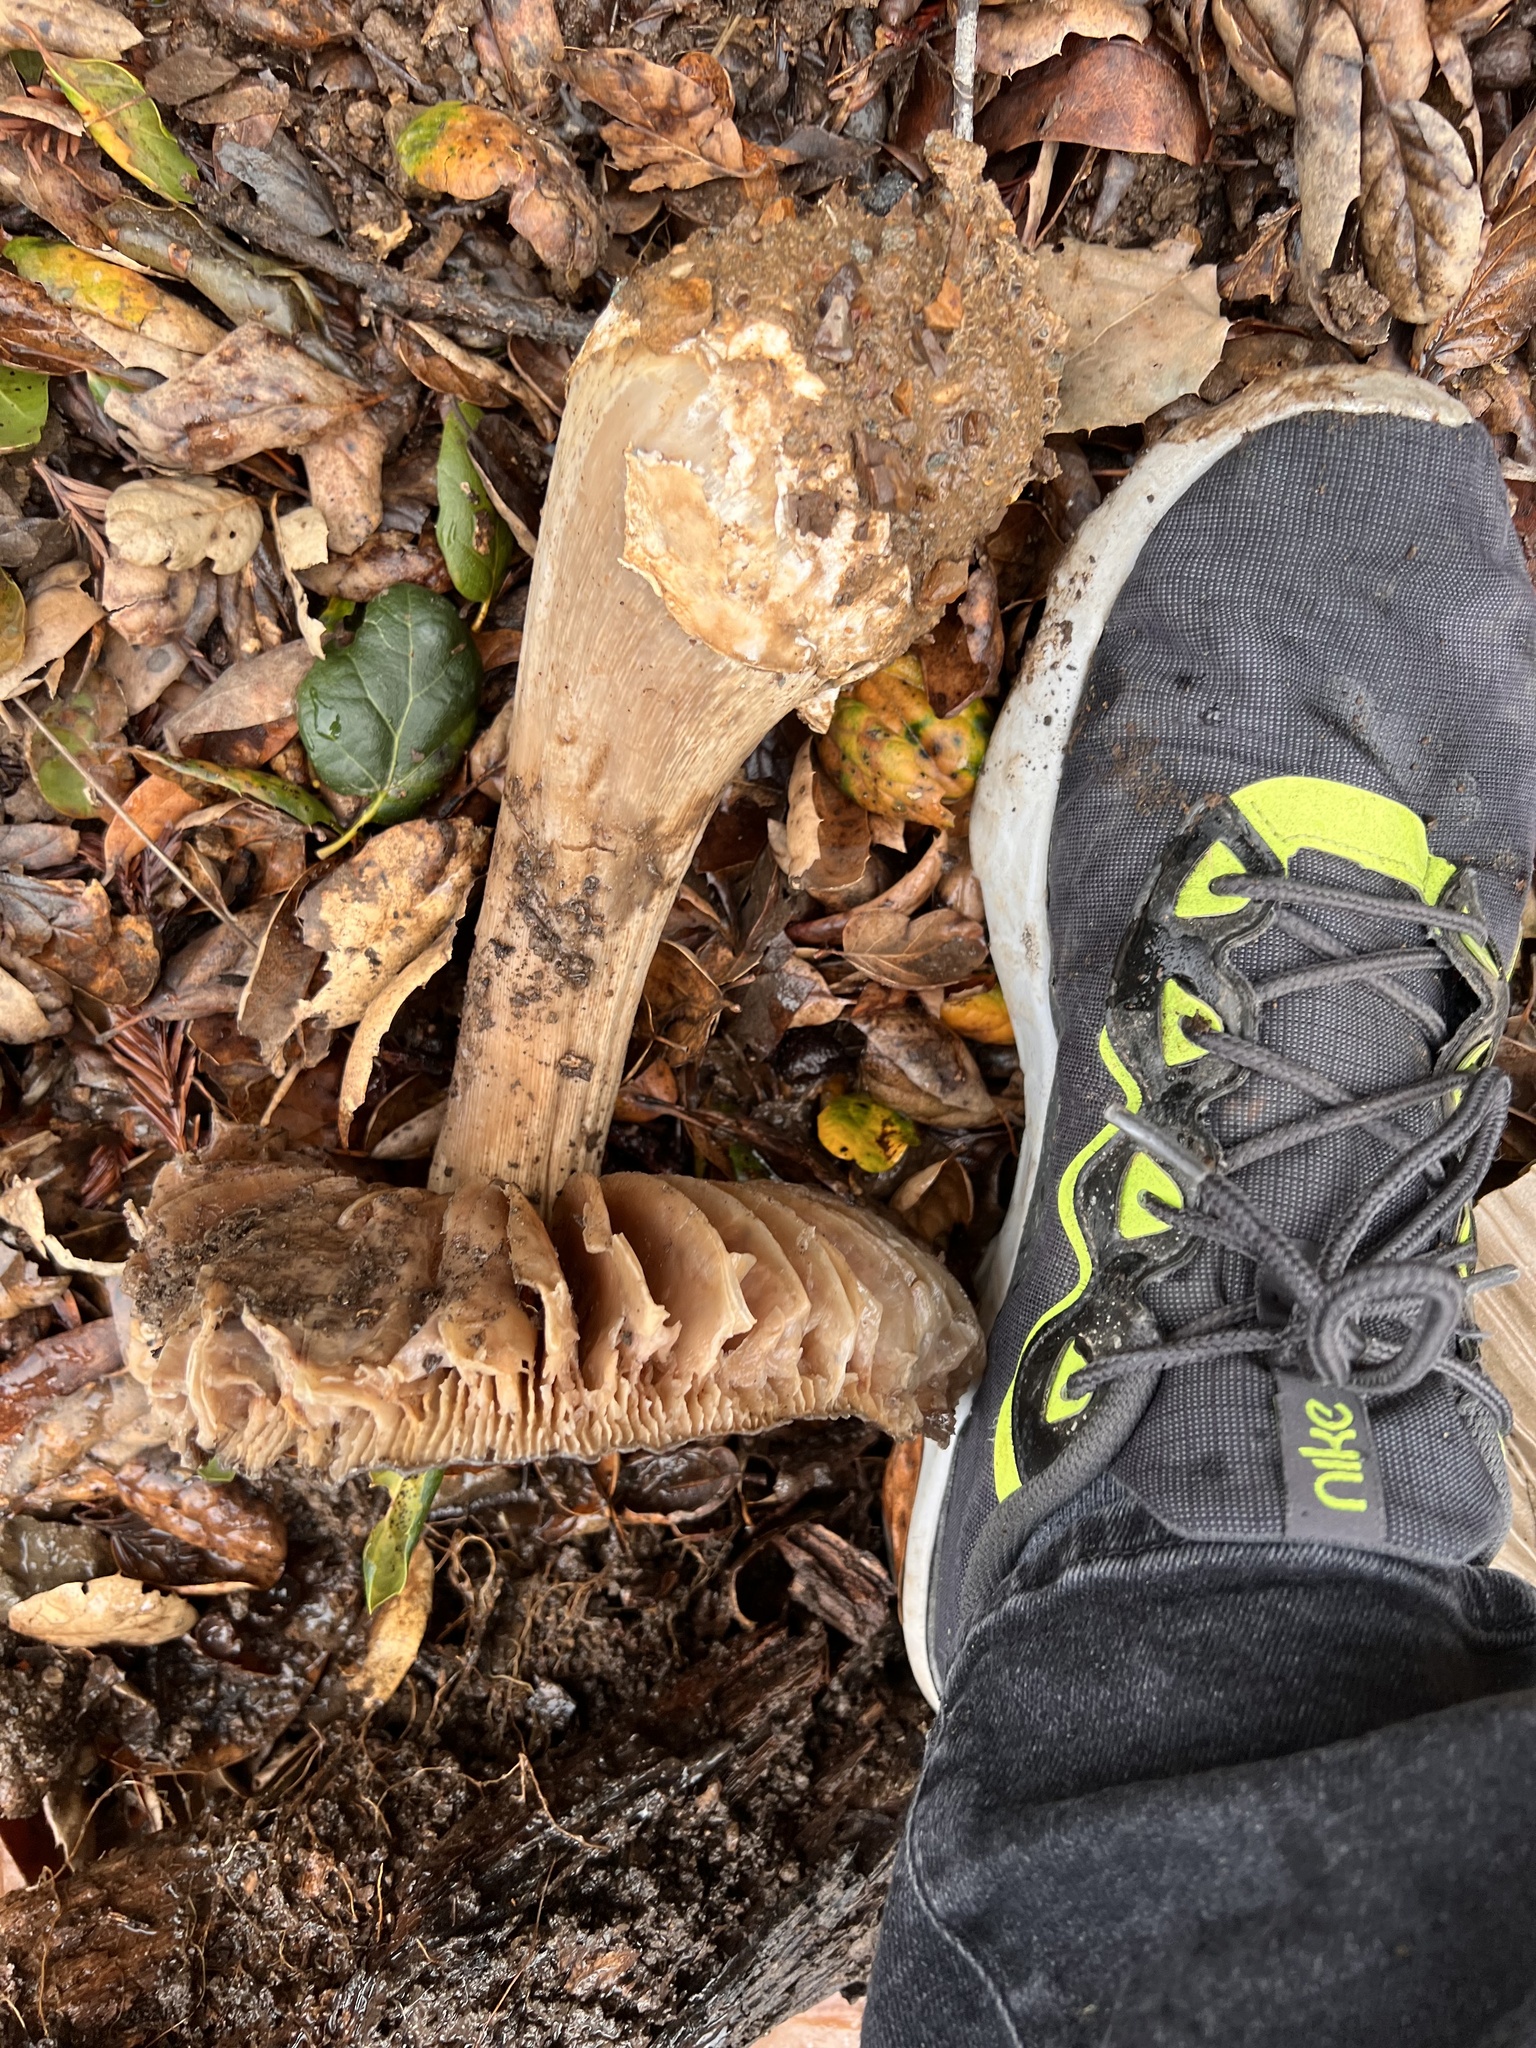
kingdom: Fungi
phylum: Basidiomycota
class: Agaricomycetes
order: Agaricales
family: Pluteaceae
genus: Volvopluteus
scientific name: Volvopluteus gloiocephalus
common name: Stubble rosegill
